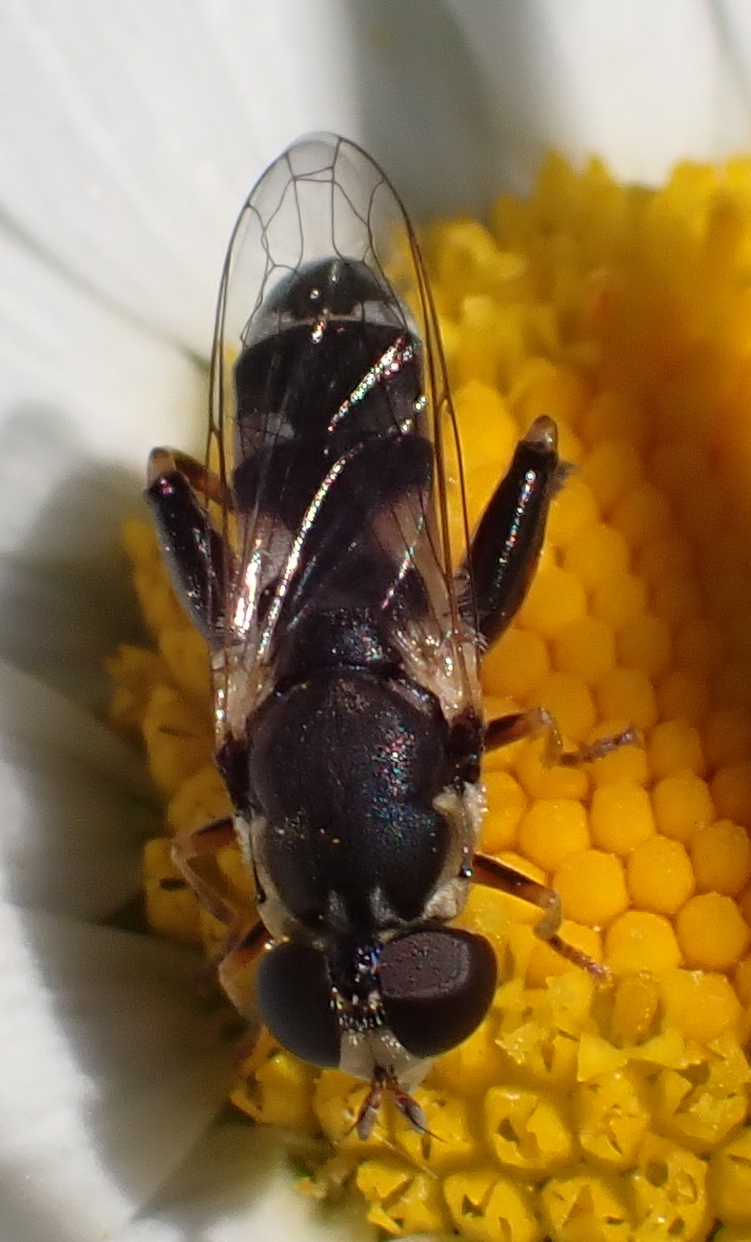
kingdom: Animalia
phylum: Arthropoda
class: Insecta
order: Diptera
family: Syrphidae
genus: Syritta
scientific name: Syritta pipiens
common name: Hover fly
